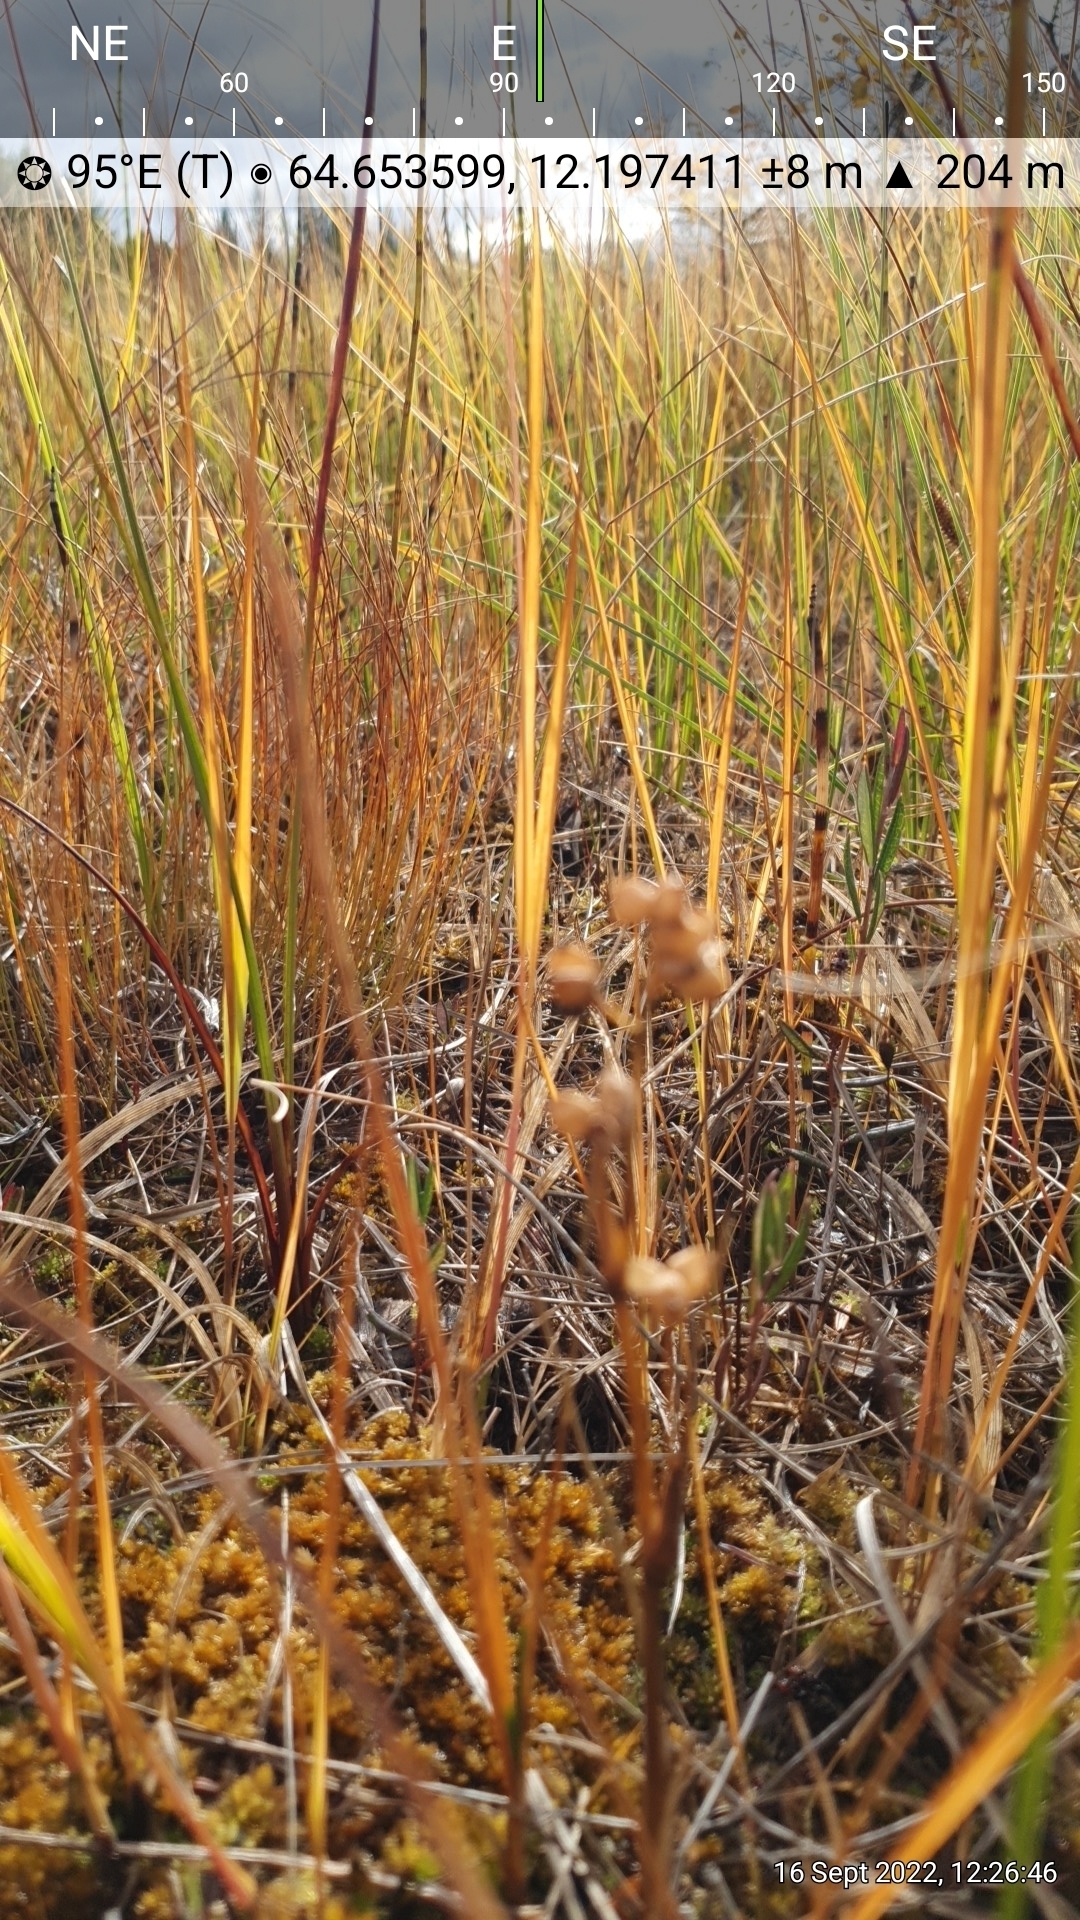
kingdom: Plantae
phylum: Tracheophyta
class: Liliopsida
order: Alismatales
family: Scheuchzeriaceae
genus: Scheuchzeria
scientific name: Scheuchzeria palustris
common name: Rannoch-rush
